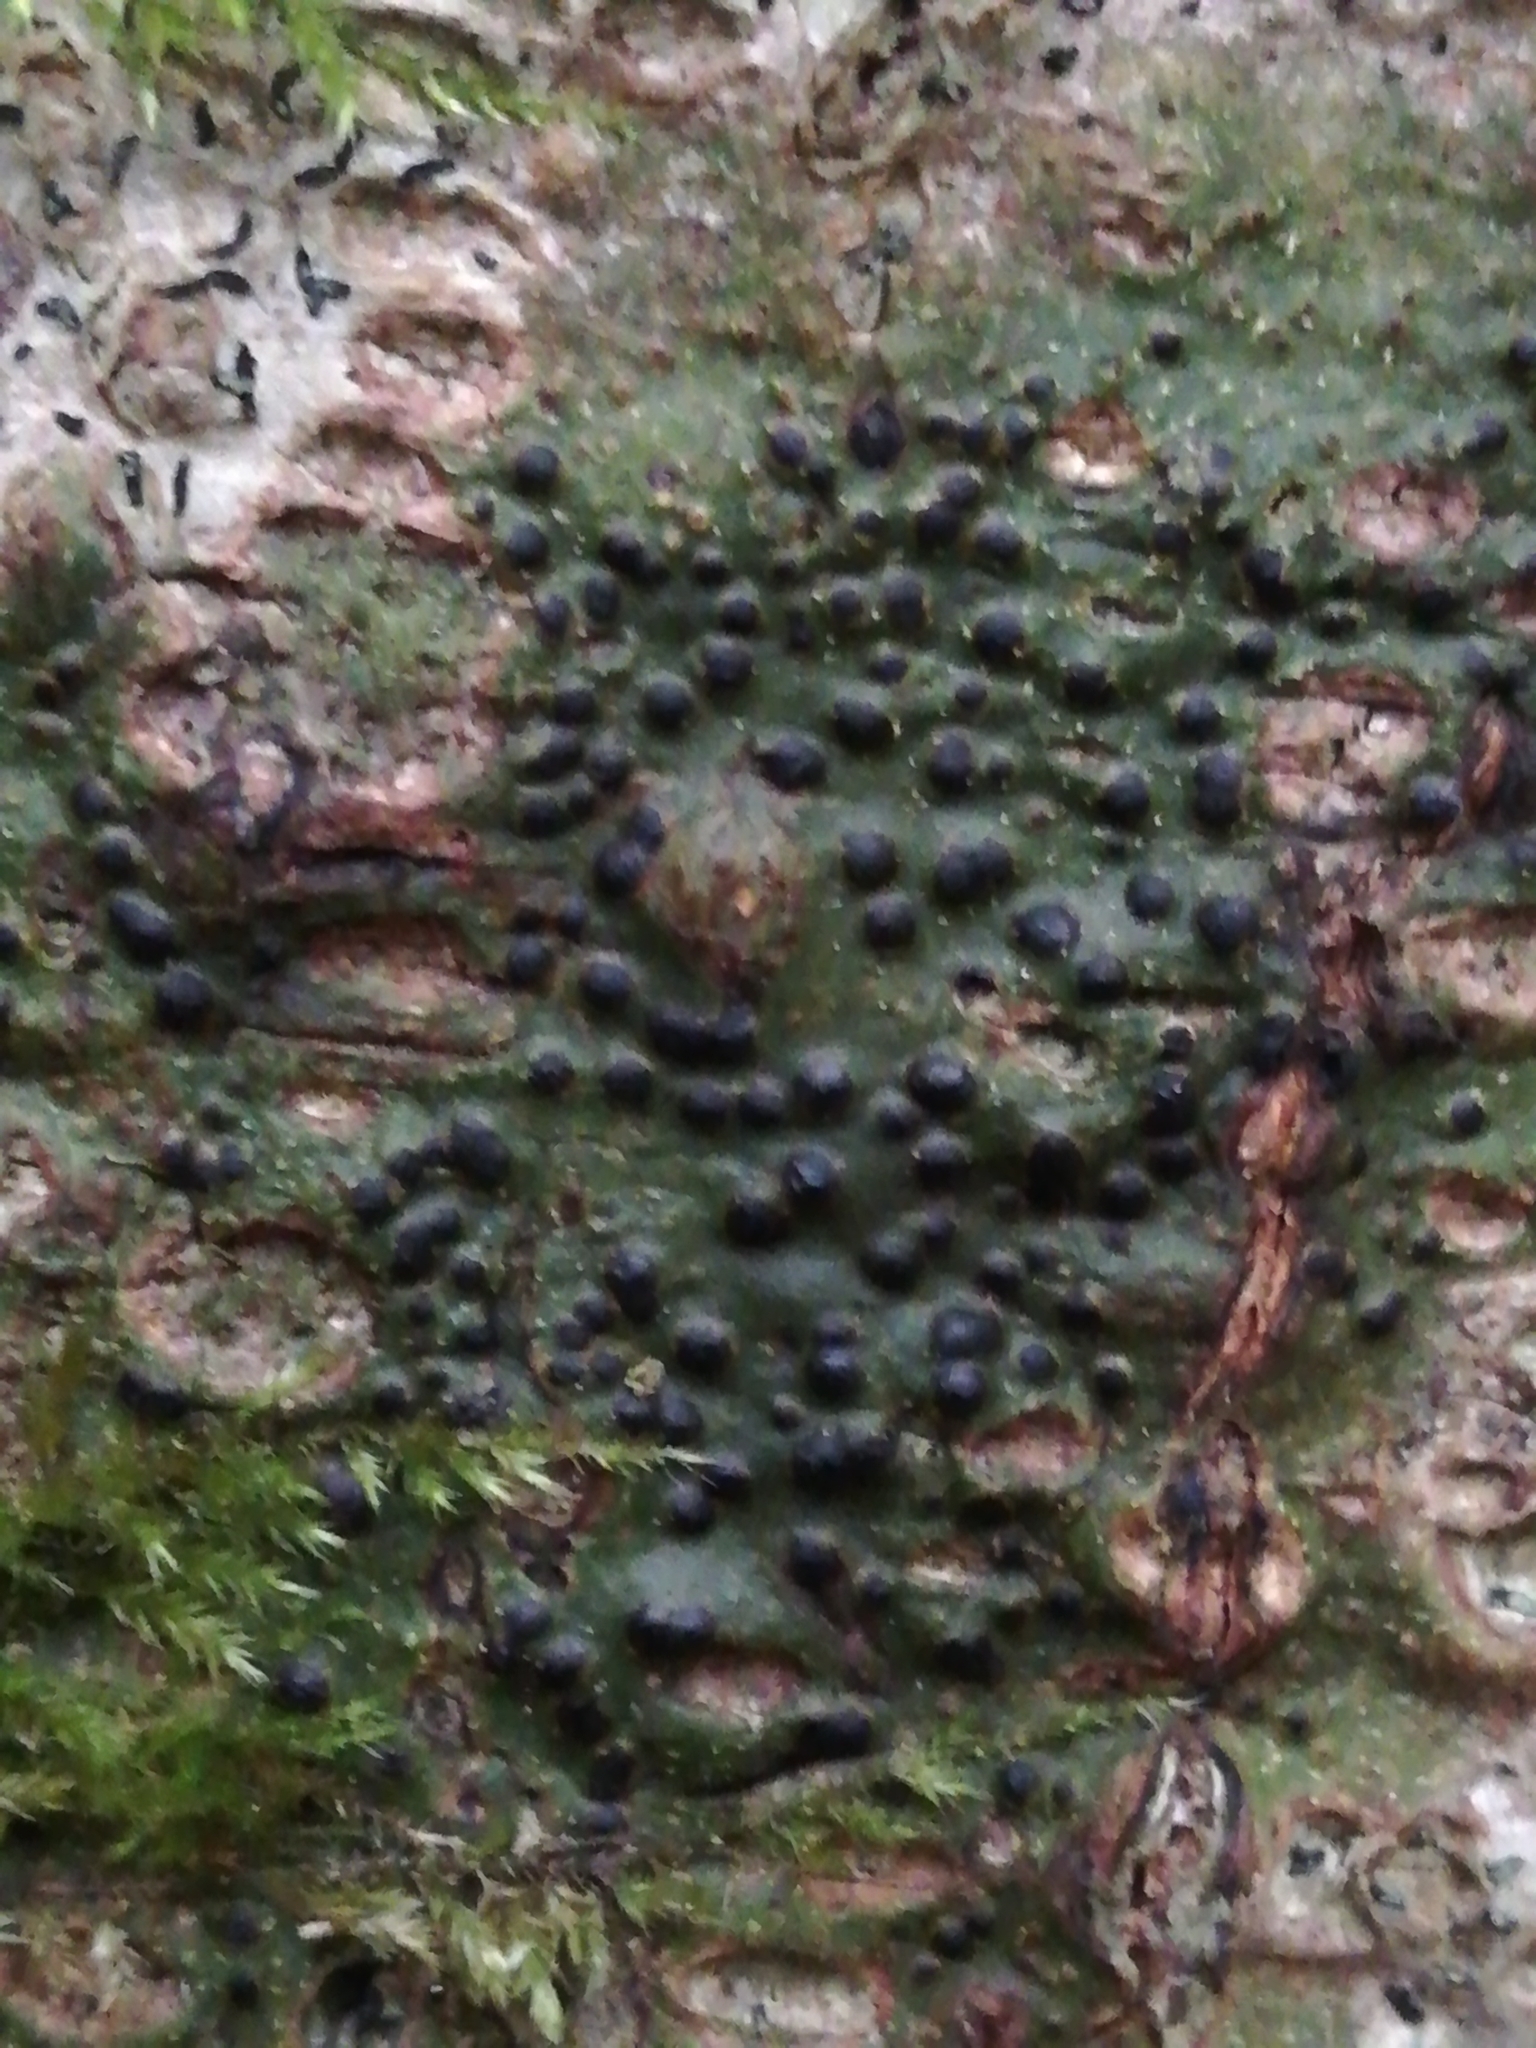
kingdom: Fungi
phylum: Ascomycota
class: Eurotiomycetes
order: Pyrenulales
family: Pyrenulaceae
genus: Pyrenula
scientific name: Pyrenula nitida
